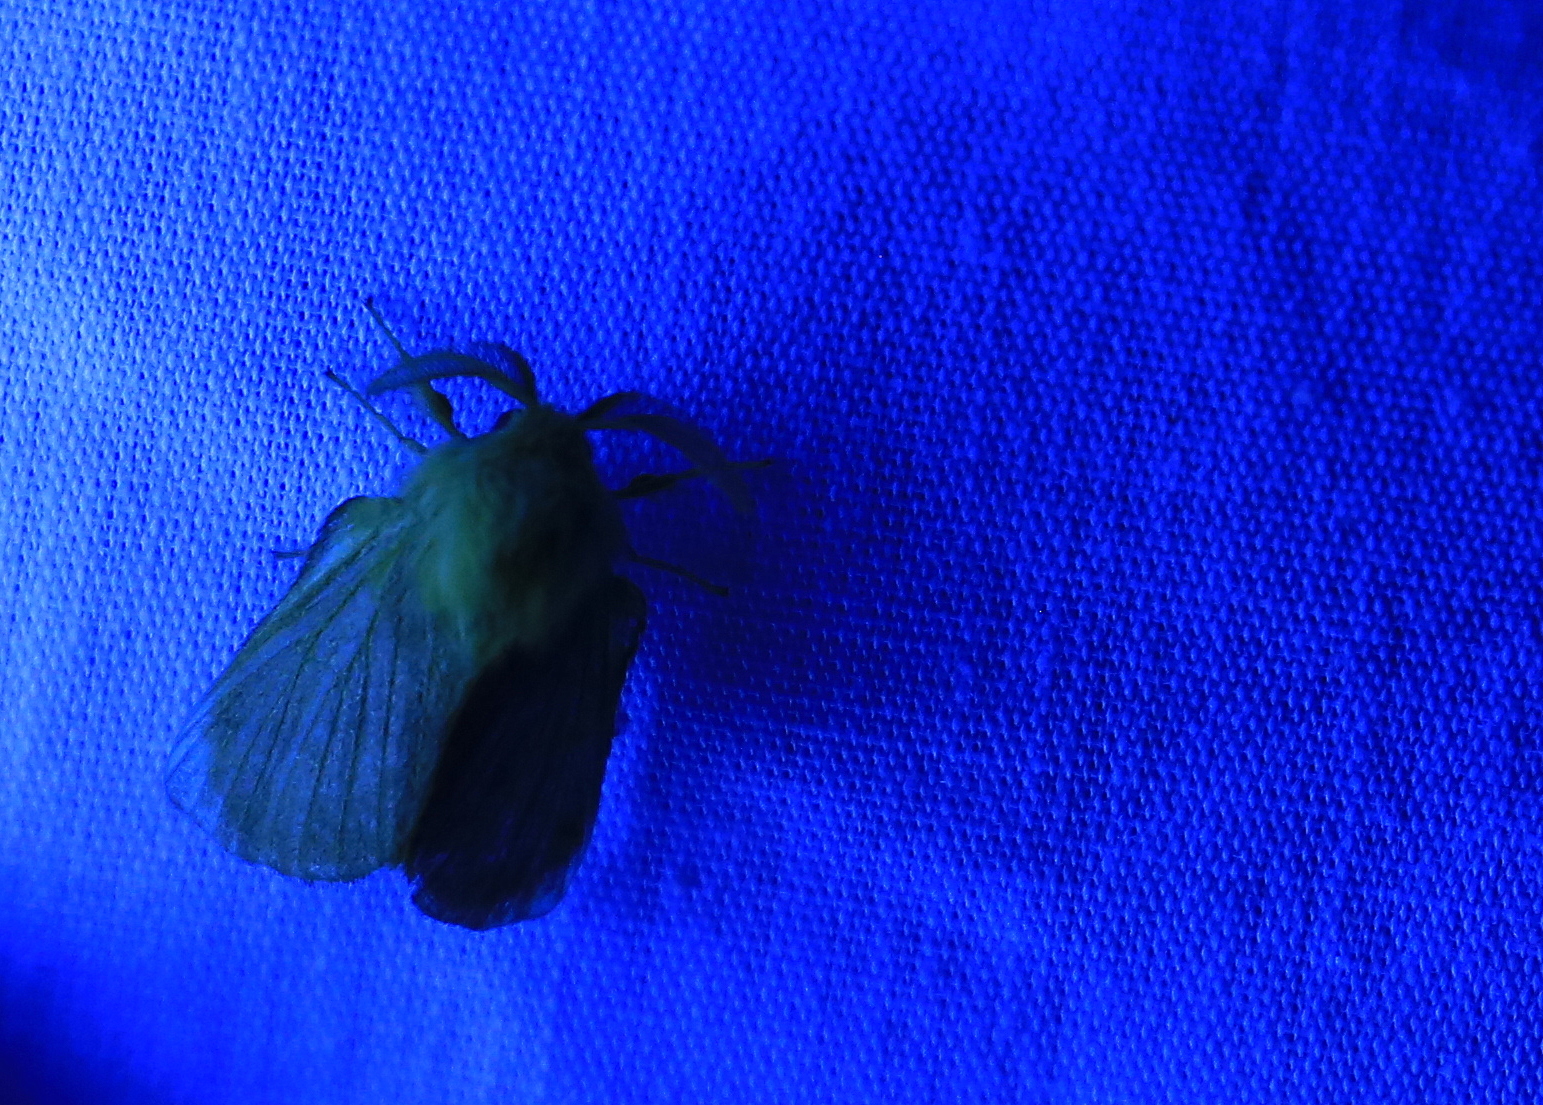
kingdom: Animalia
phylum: Arthropoda
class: Insecta
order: Lepidoptera
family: Lasiocampidae
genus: Malacosoma
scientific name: Malacosoma disstria
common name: Forest tent caterpillar
